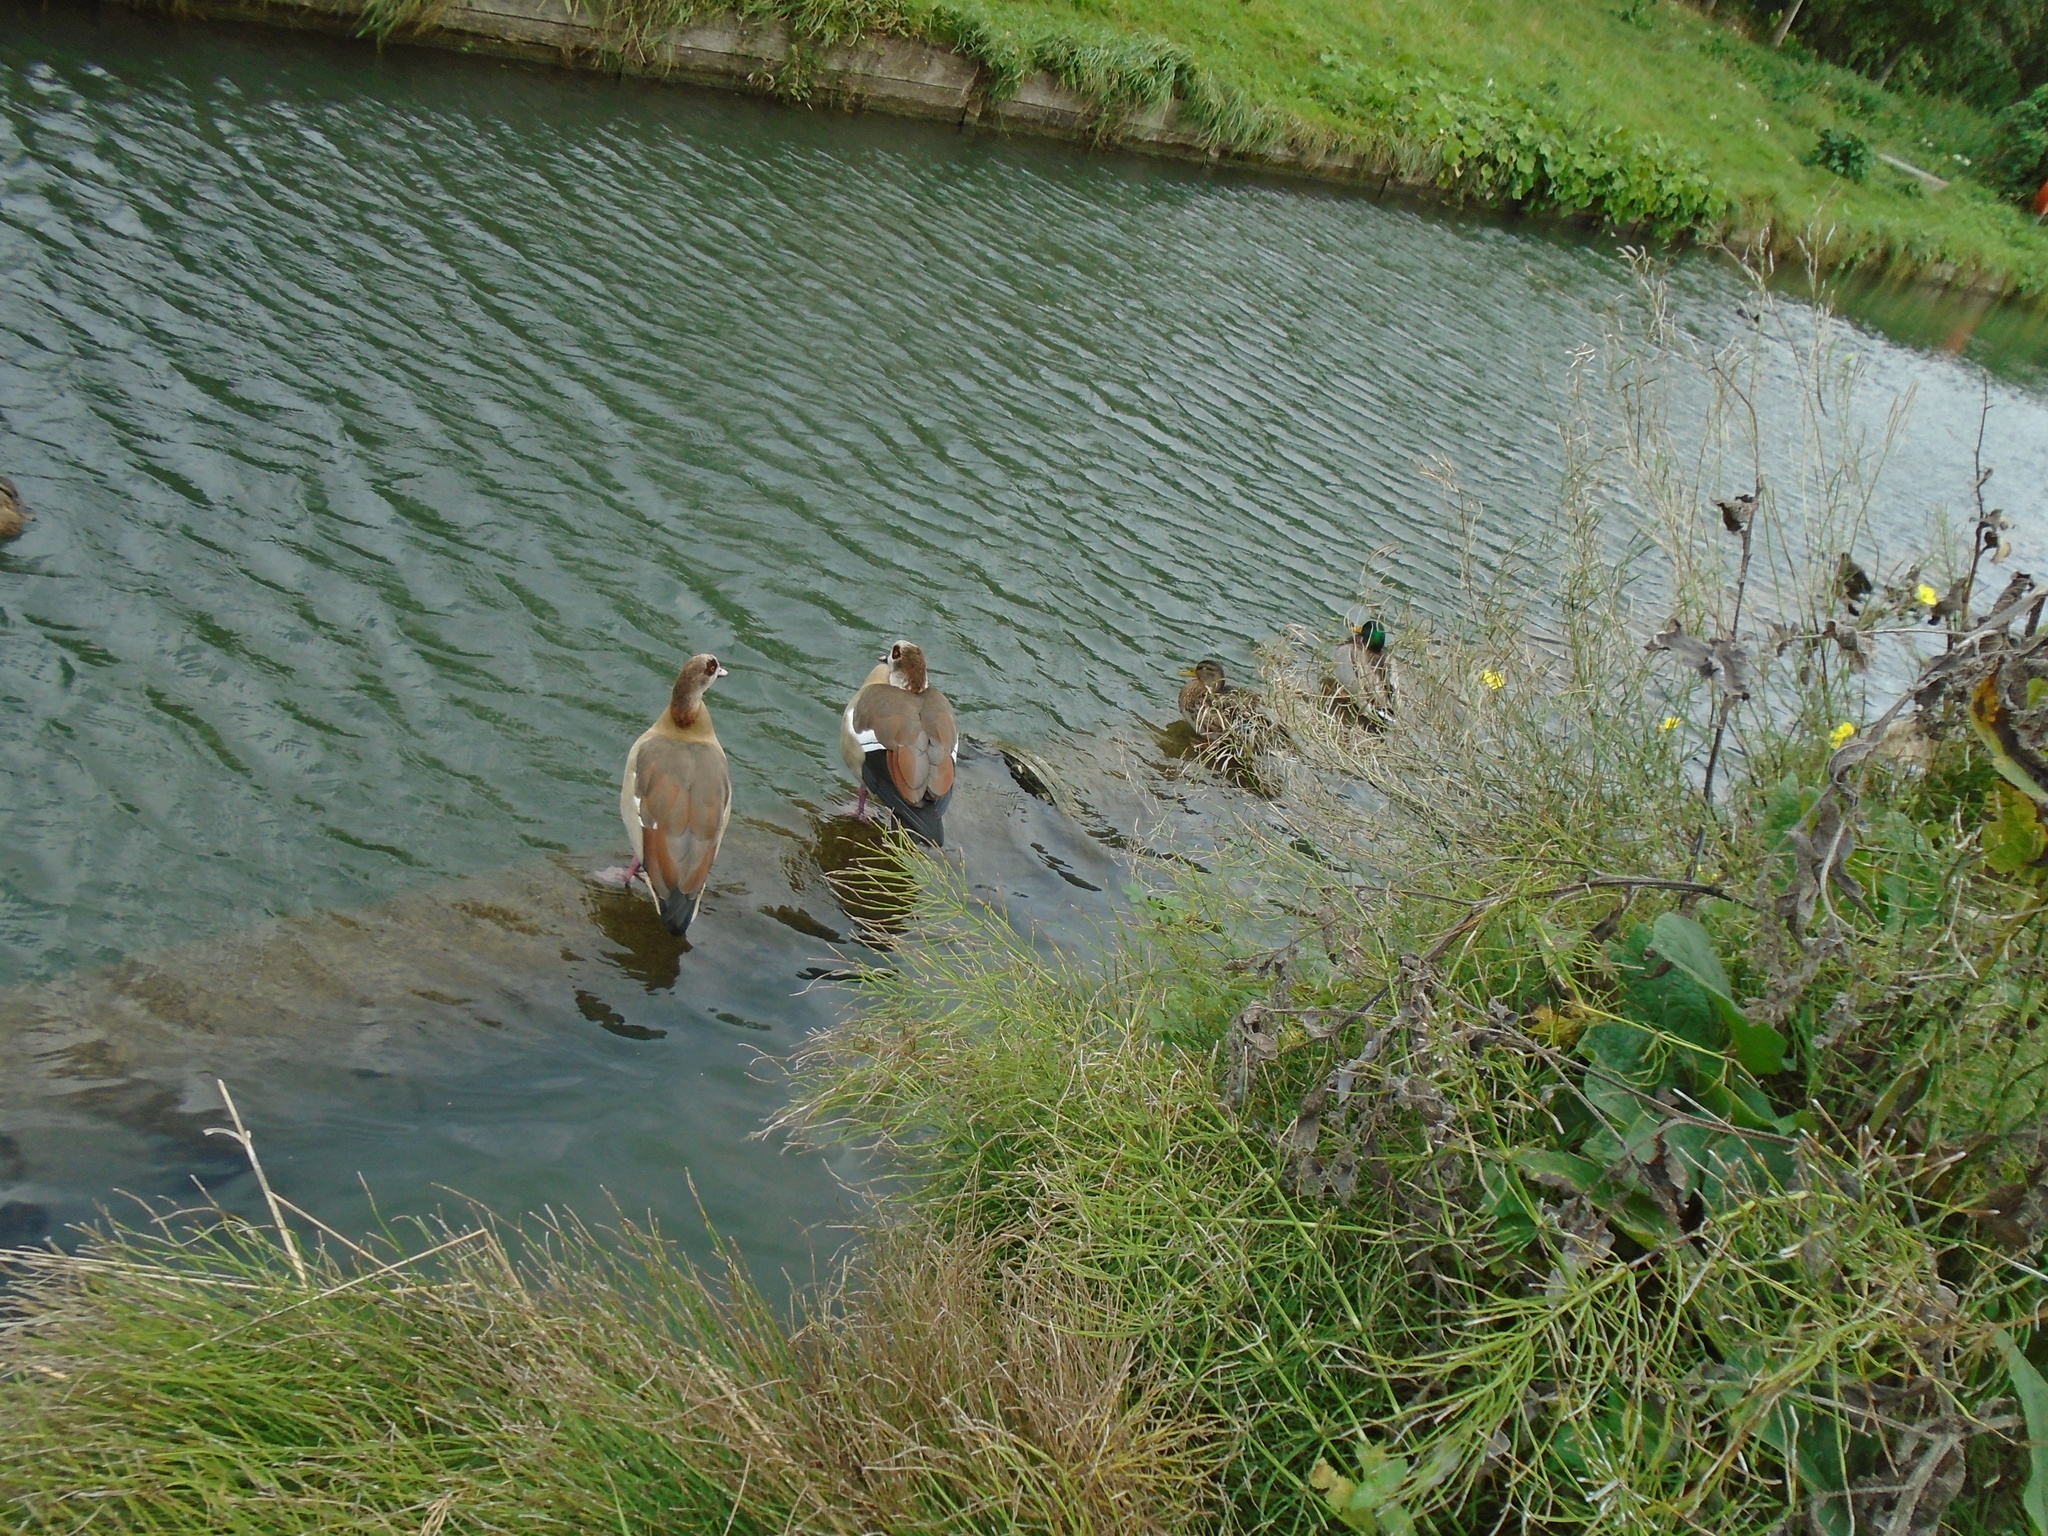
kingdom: Animalia
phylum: Chordata
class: Aves
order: Anseriformes
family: Anatidae
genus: Alopochen
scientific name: Alopochen aegyptiaca
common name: Egyptian goose
